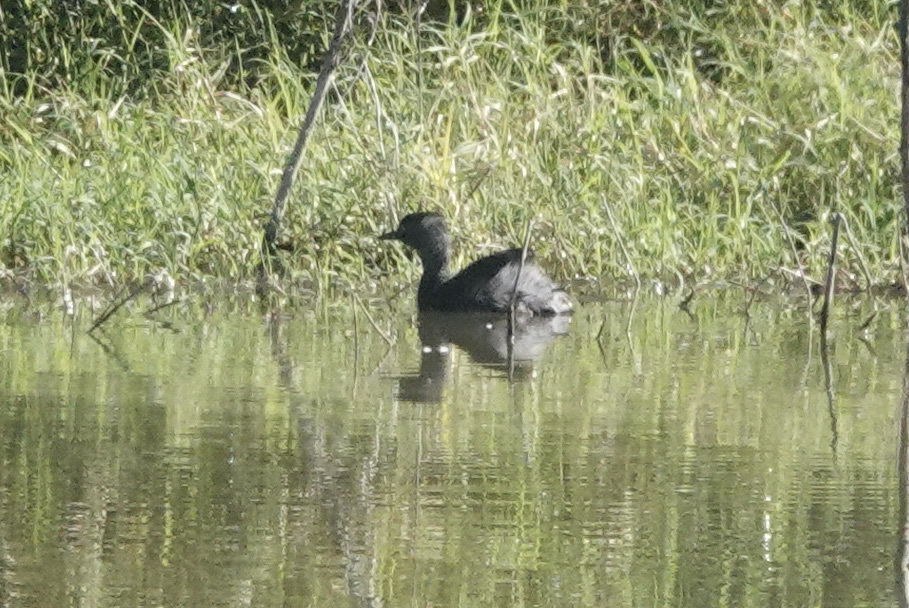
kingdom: Animalia
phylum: Chordata
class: Aves
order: Podicipediformes
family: Podicipedidae
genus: Tachybaptus
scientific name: Tachybaptus dominicus
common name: Least grebe
